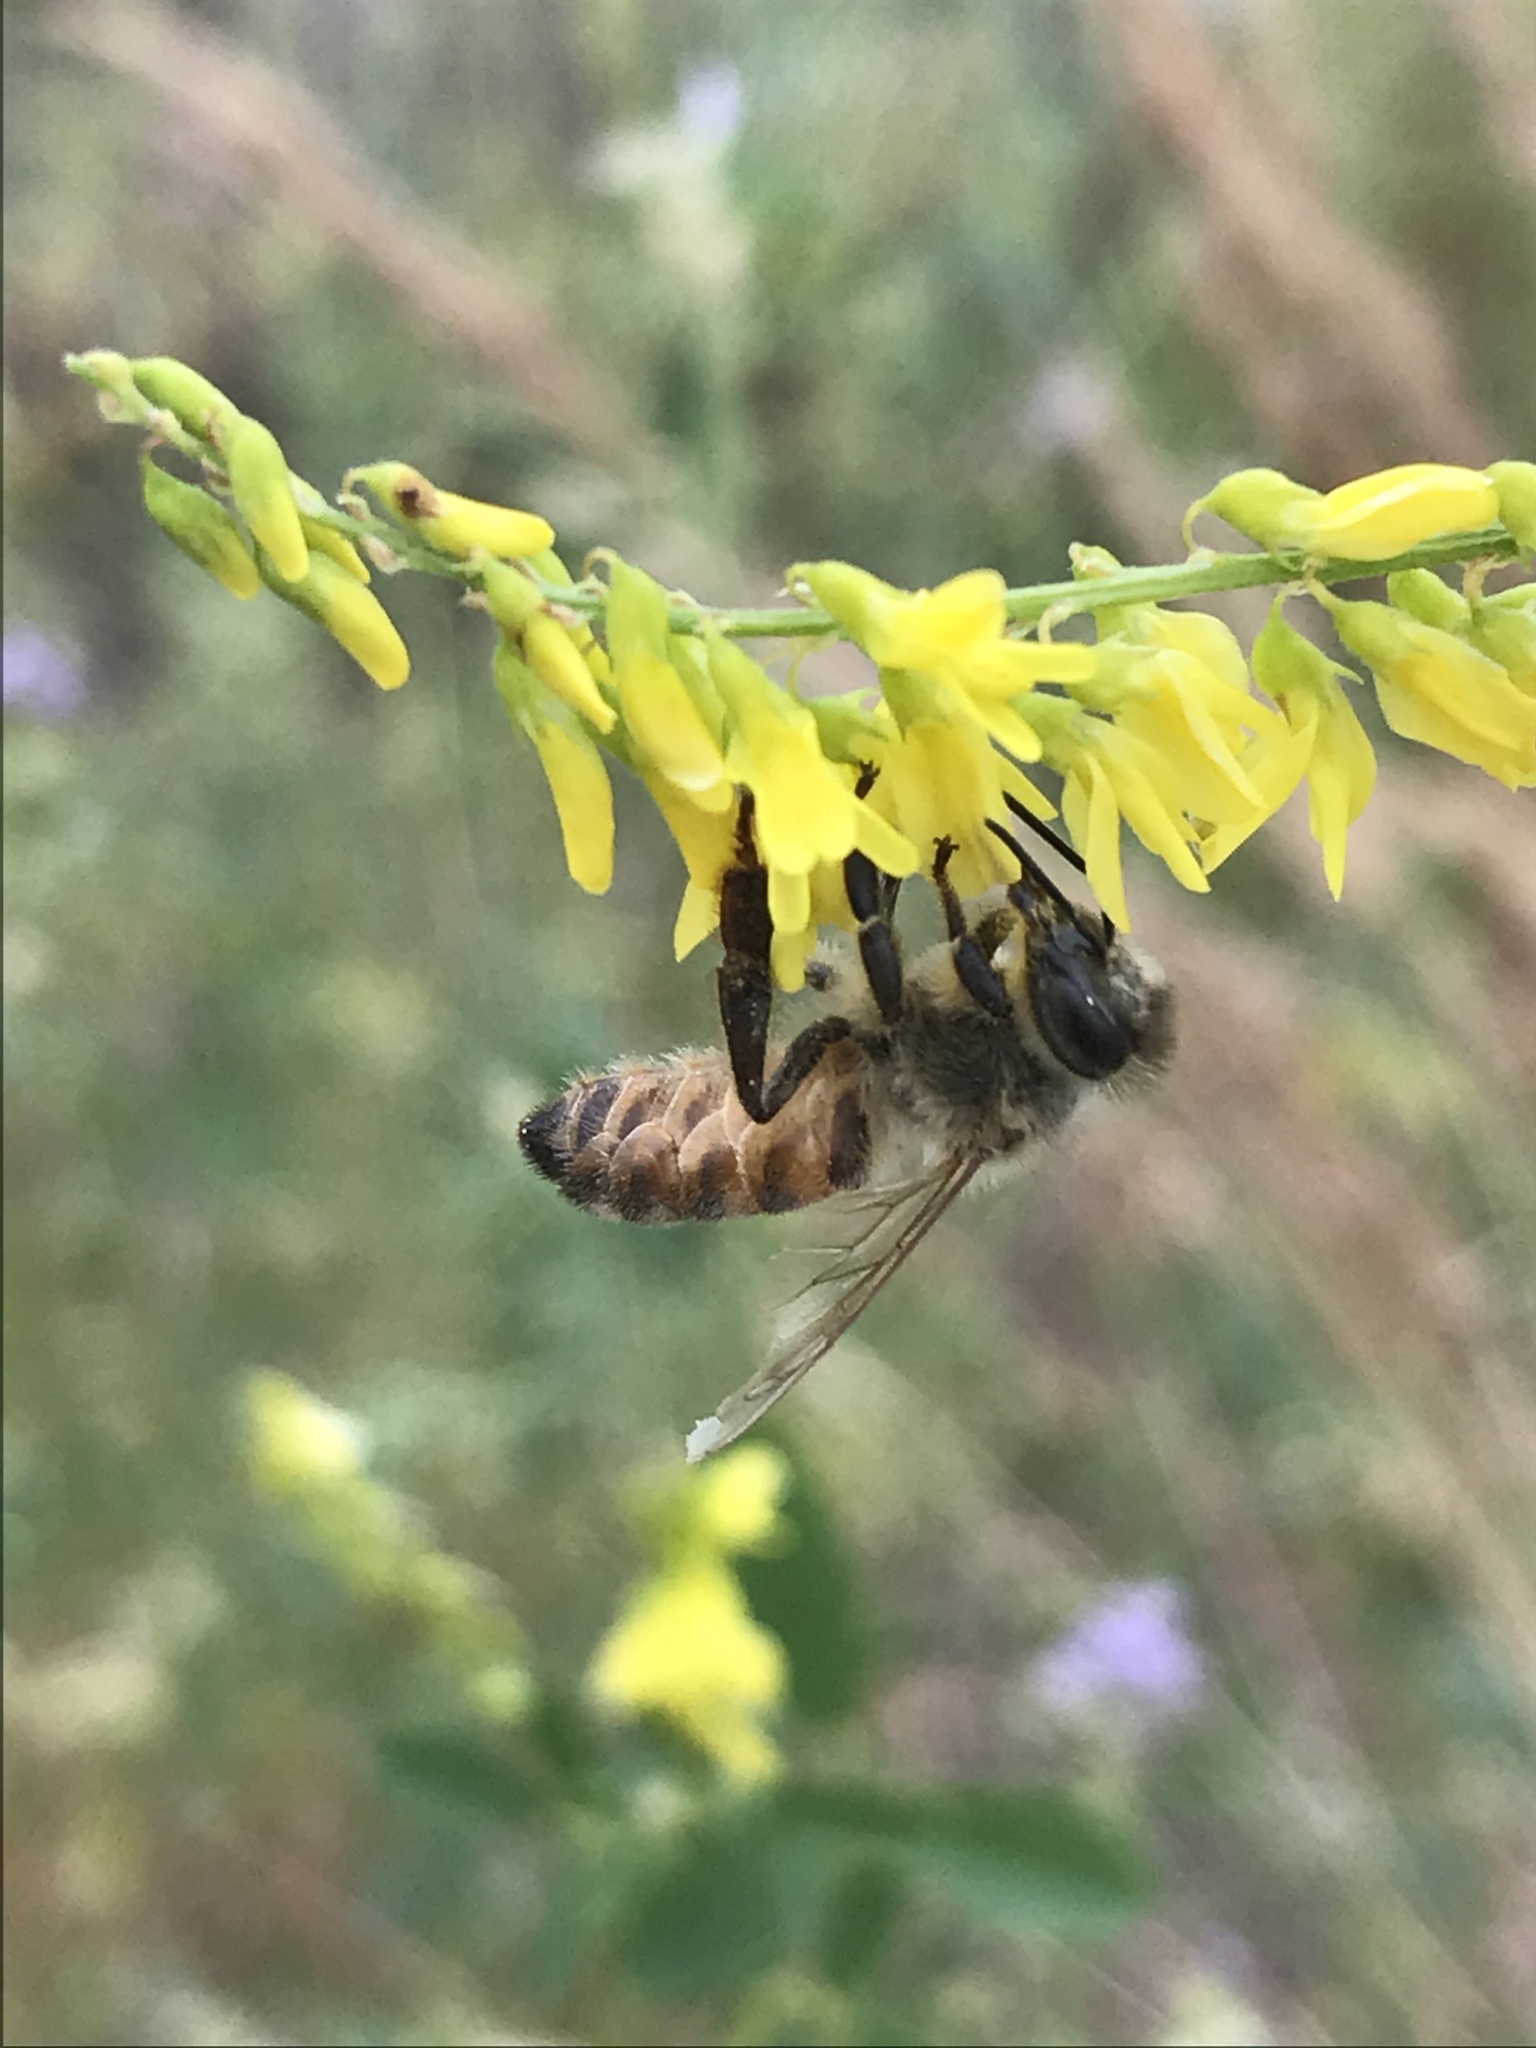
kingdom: Animalia
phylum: Arthropoda
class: Insecta
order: Hymenoptera
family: Apidae
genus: Apis
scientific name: Apis mellifera
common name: Honey bee
